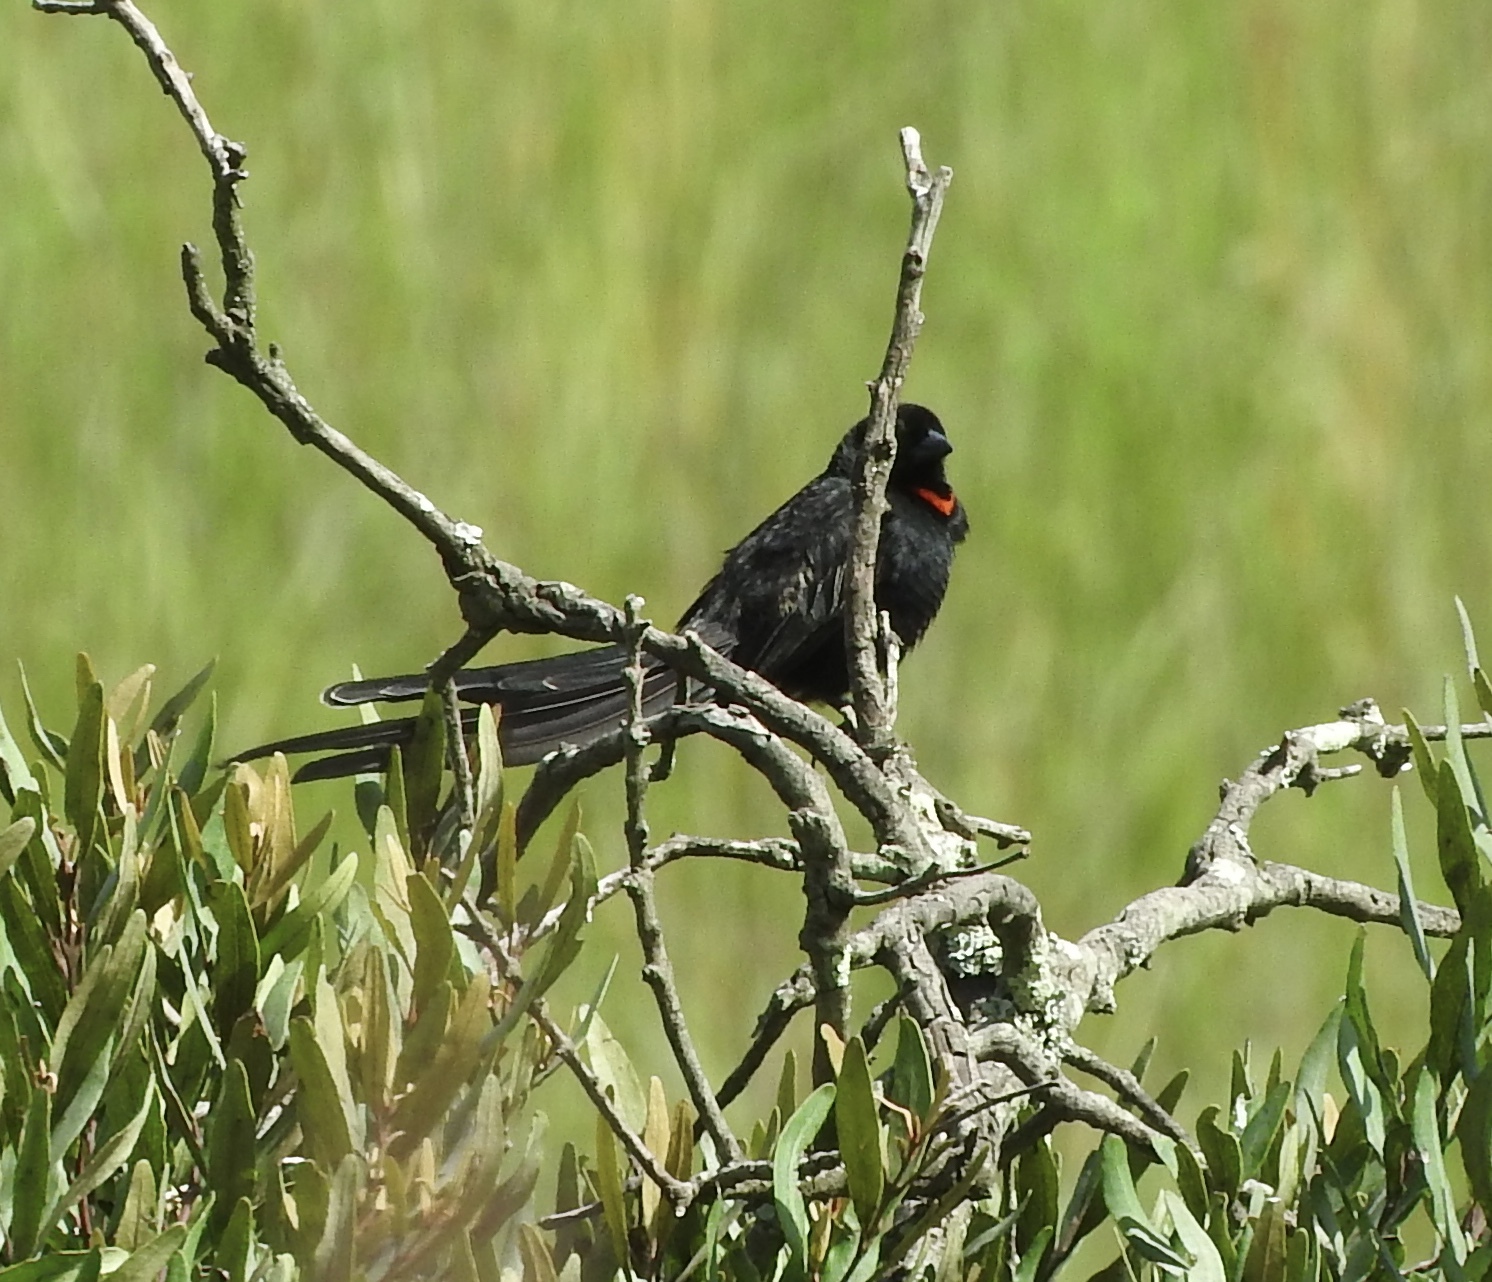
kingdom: Animalia
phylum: Chordata
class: Aves
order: Passeriformes
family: Ploceidae
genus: Euplectes
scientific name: Euplectes ardens
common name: Red-collared widowbird
